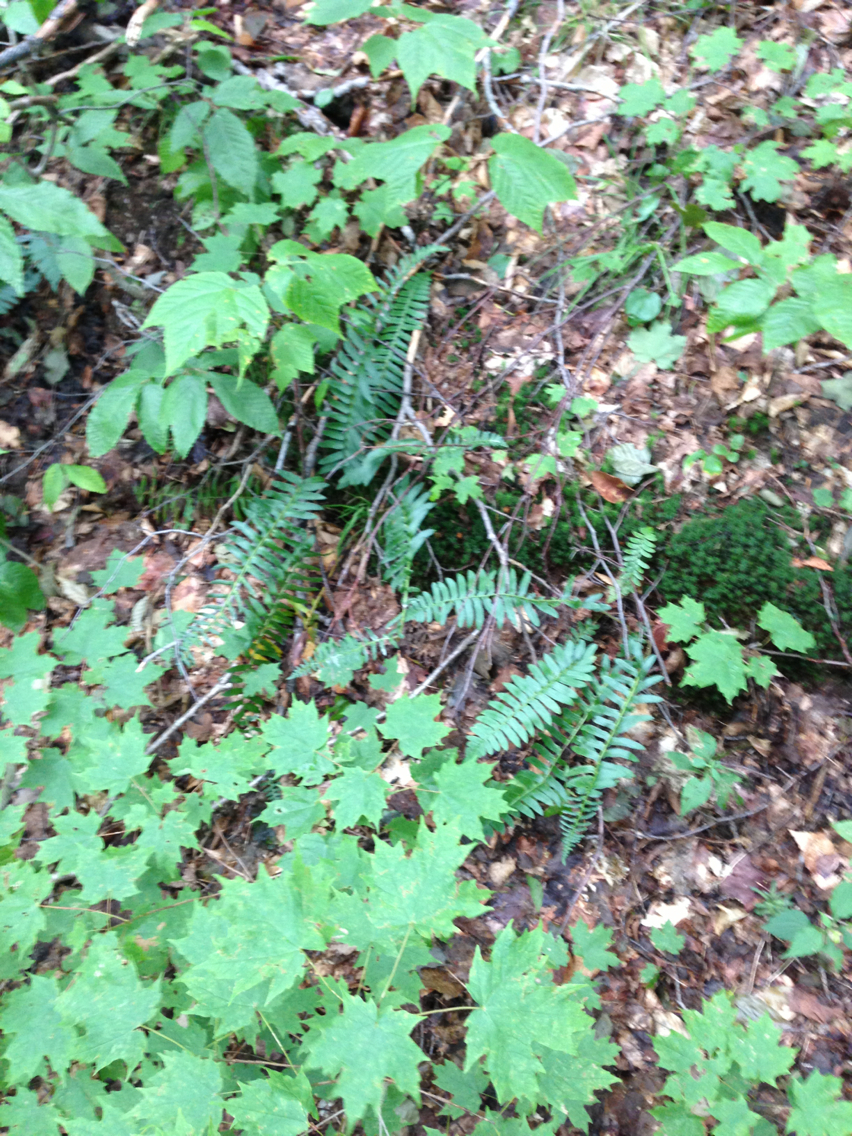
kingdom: Plantae
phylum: Tracheophyta
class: Polypodiopsida
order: Polypodiales
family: Dryopteridaceae
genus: Polystichum
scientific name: Polystichum acrostichoides
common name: Christmas fern
